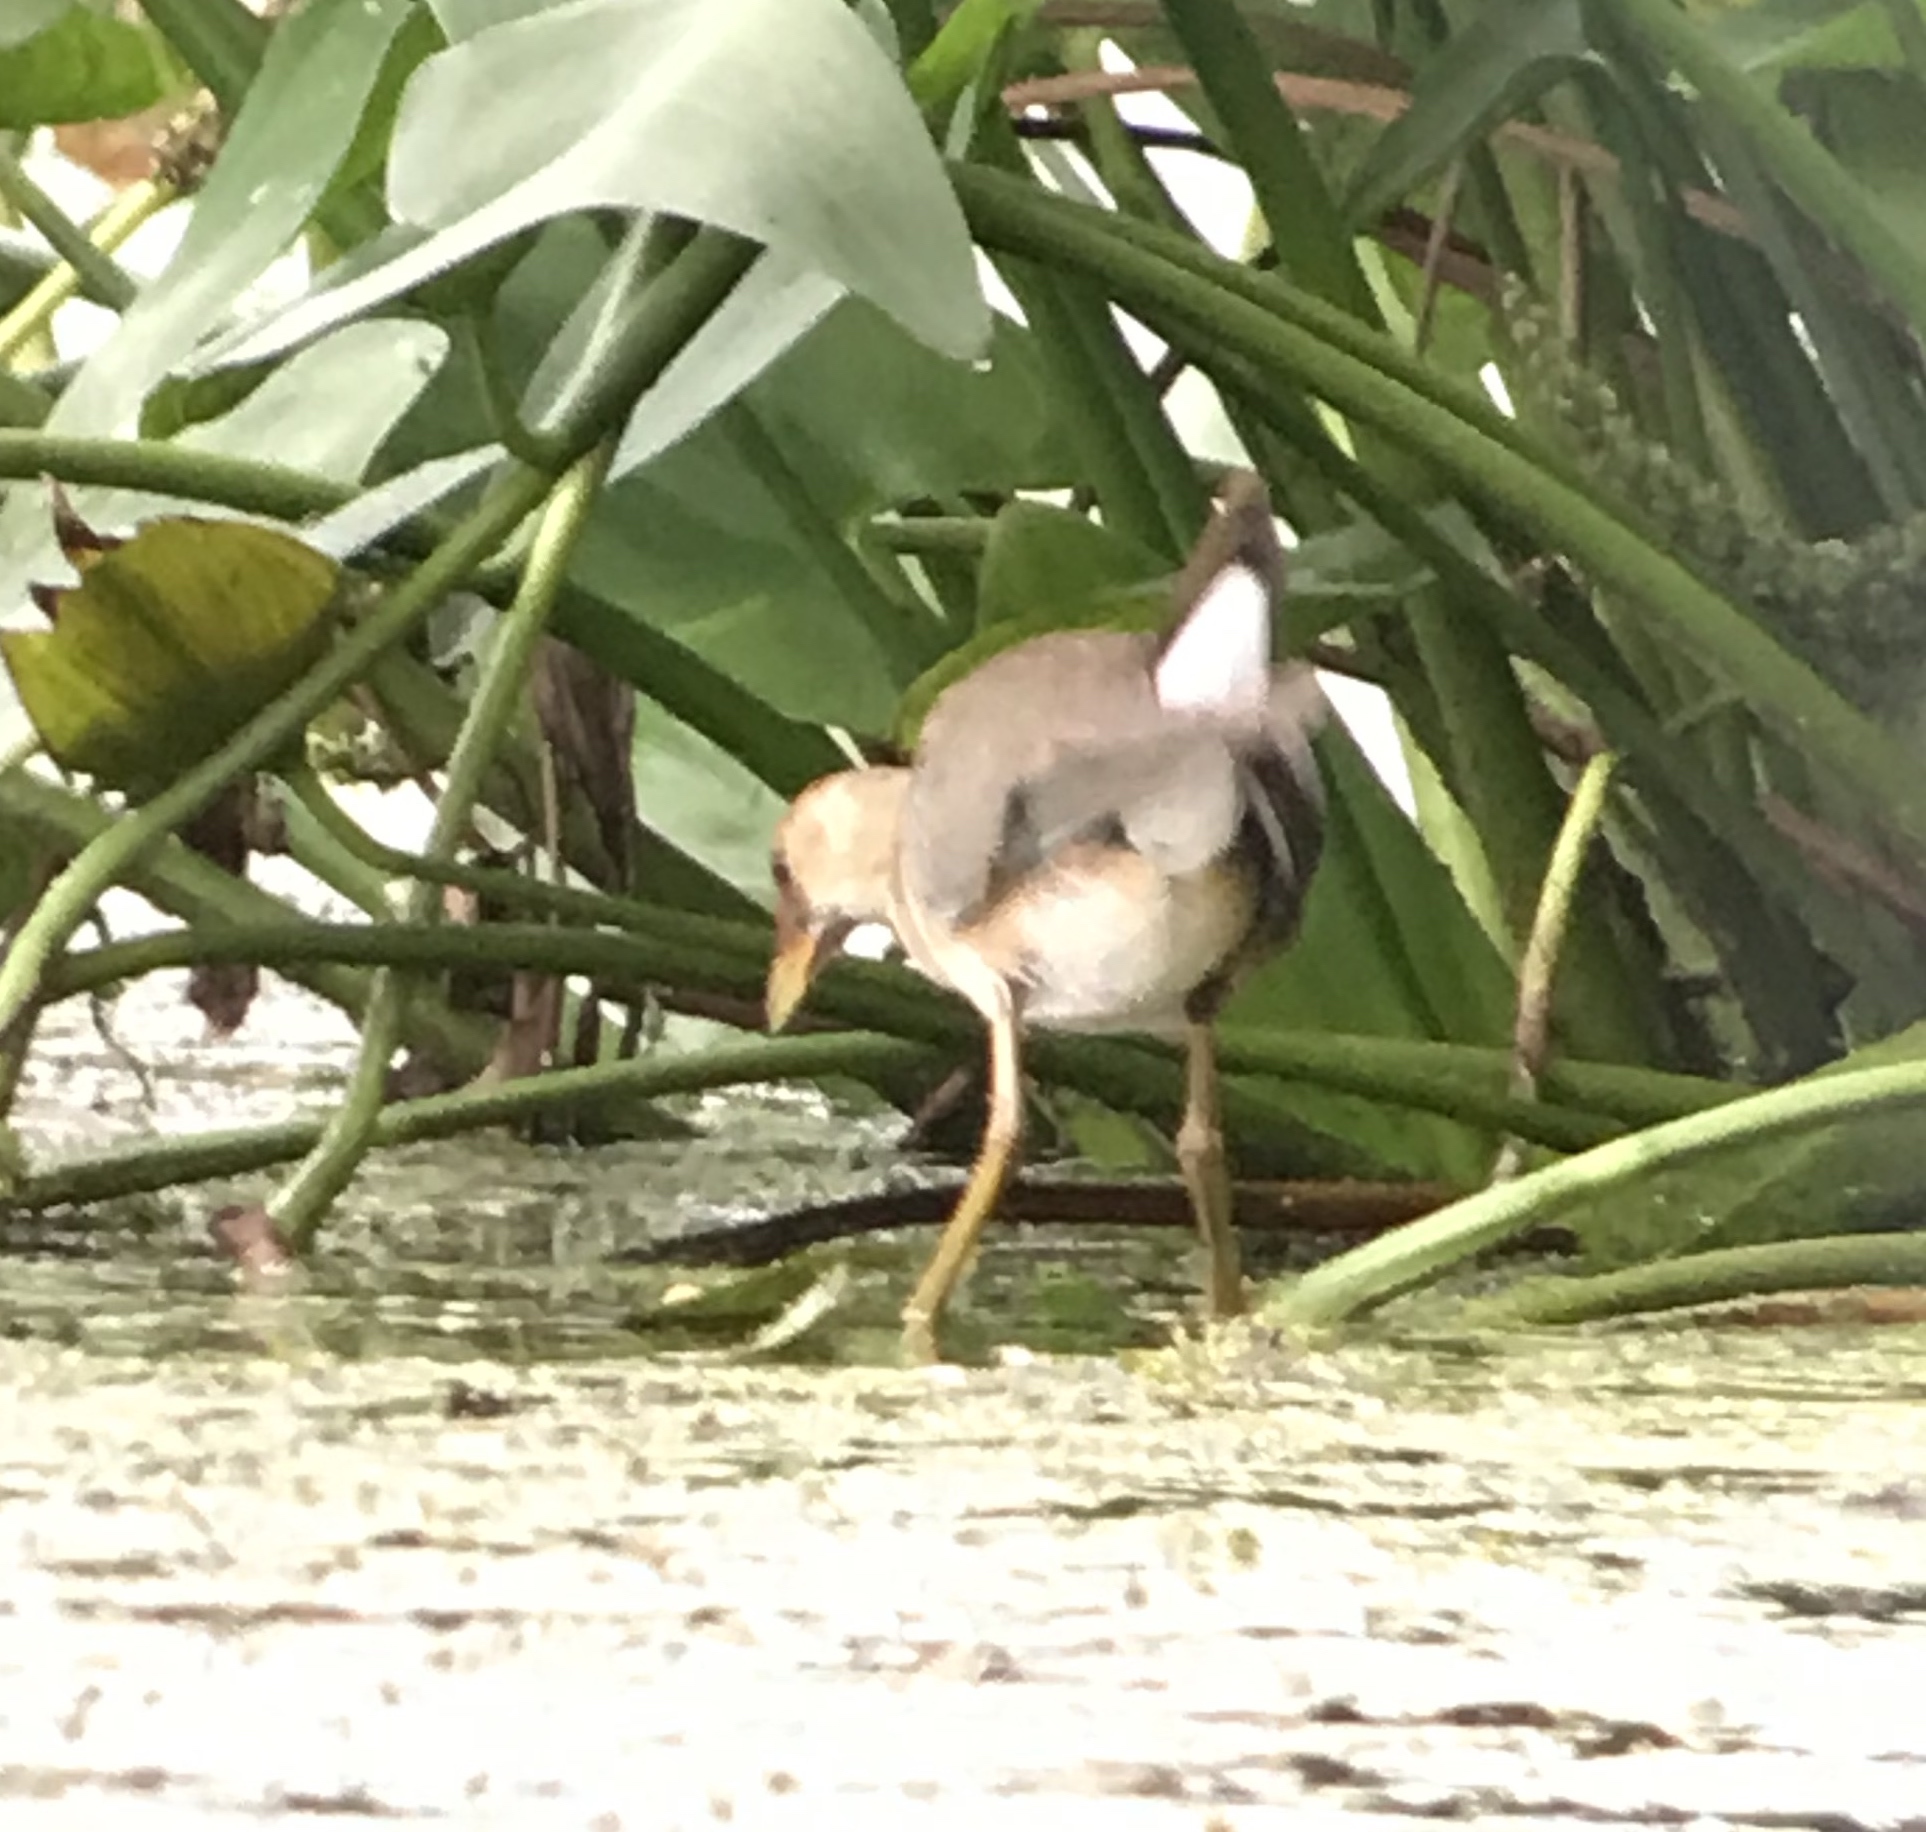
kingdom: Animalia
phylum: Chordata
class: Aves
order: Gruiformes
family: Rallidae
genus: Porphyrio
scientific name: Porphyrio martinica
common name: Purple gallinule
